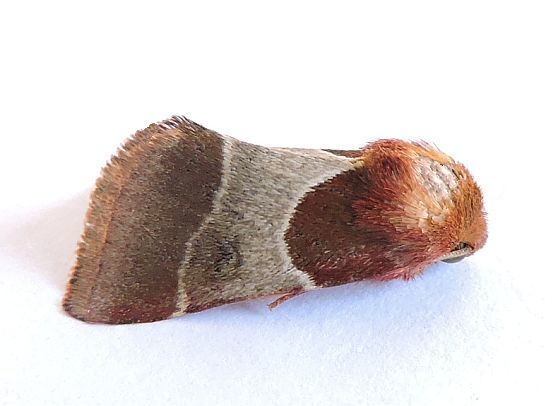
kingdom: Animalia
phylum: Arthropoda
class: Insecta
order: Lepidoptera
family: Noctuidae
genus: Schinia
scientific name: Schinia arcigera
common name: Arcigera flower moth
